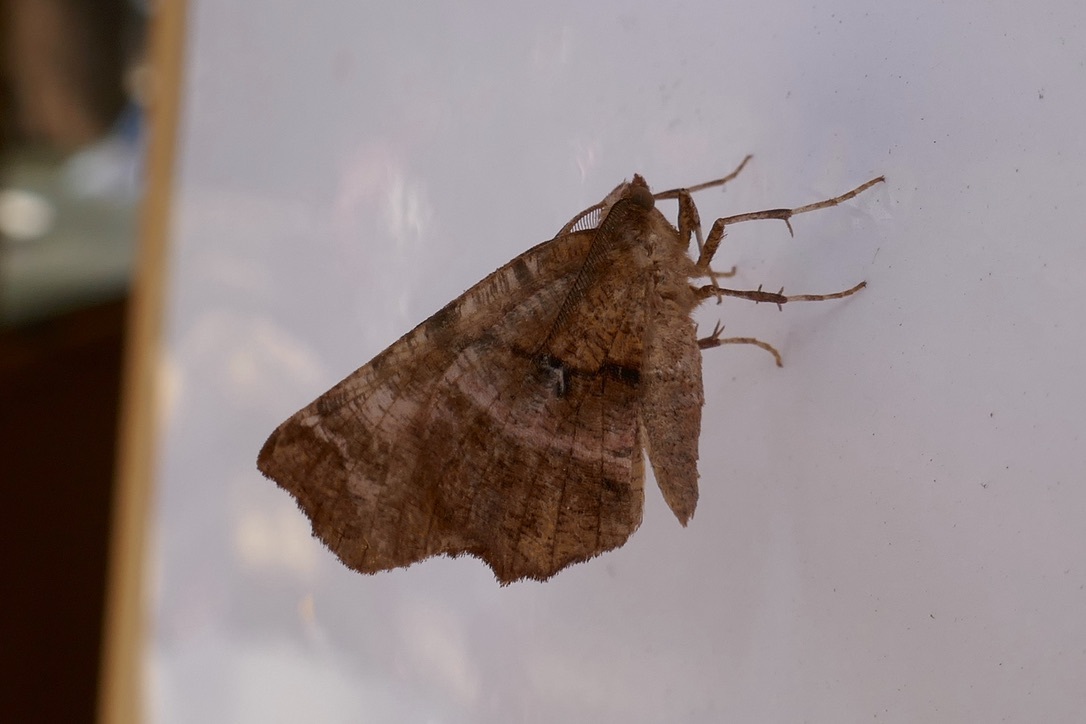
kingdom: Animalia
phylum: Arthropoda
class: Insecta
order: Lepidoptera
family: Geometridae
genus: Selenia
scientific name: Selenia dentaria
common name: Early thorn
